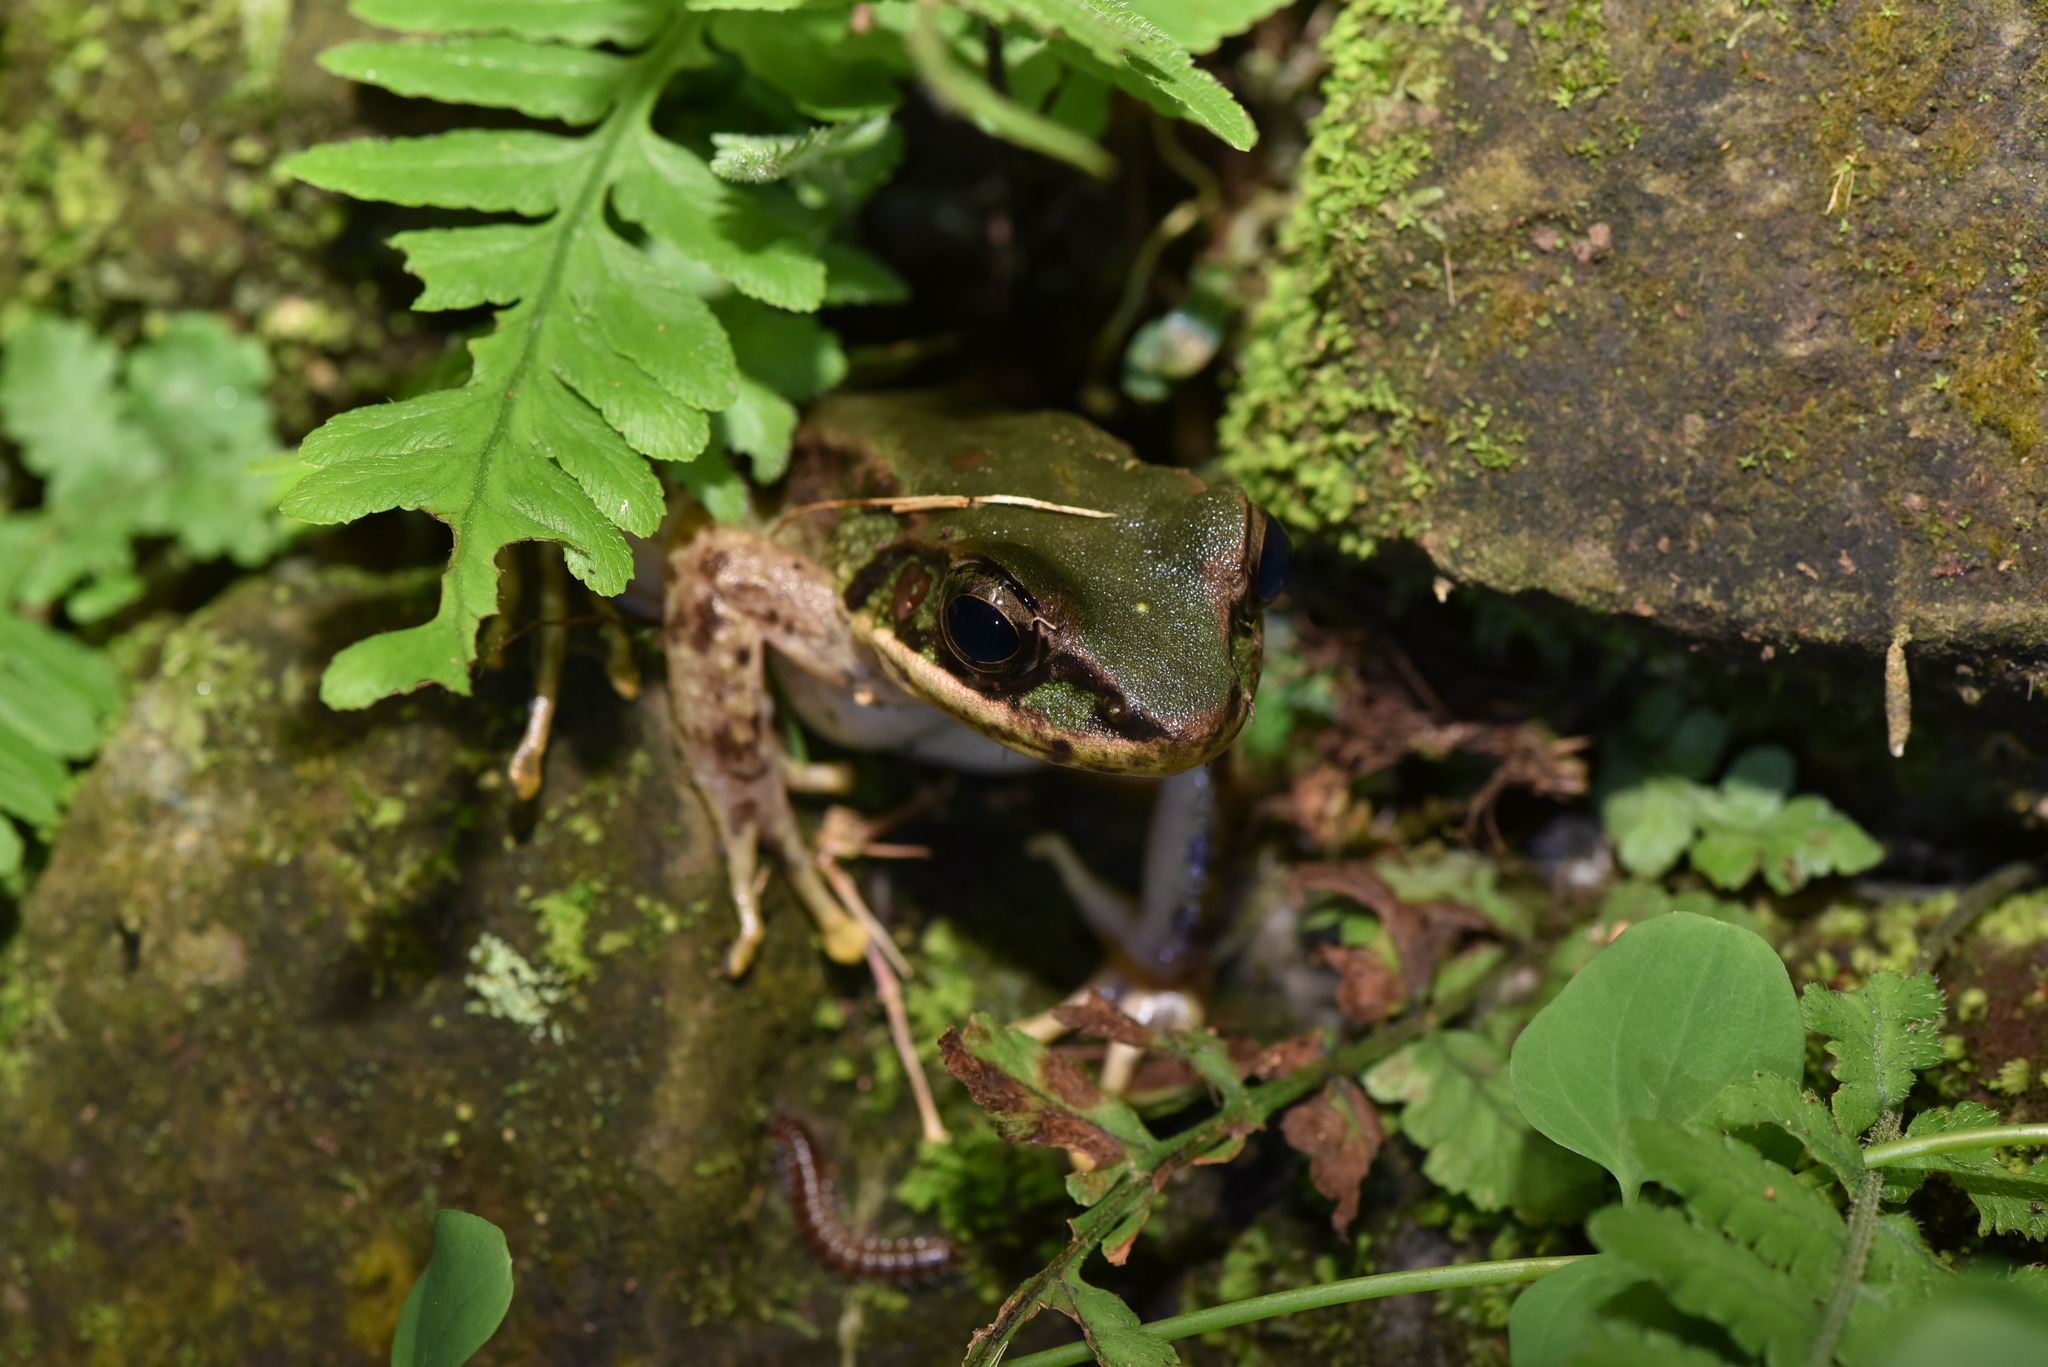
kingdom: Animalia
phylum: Chordata
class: Amphibia
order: Anura
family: Ranidae
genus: Odorrana
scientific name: Odorrana swinhoana
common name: Bangkimtsing frog
